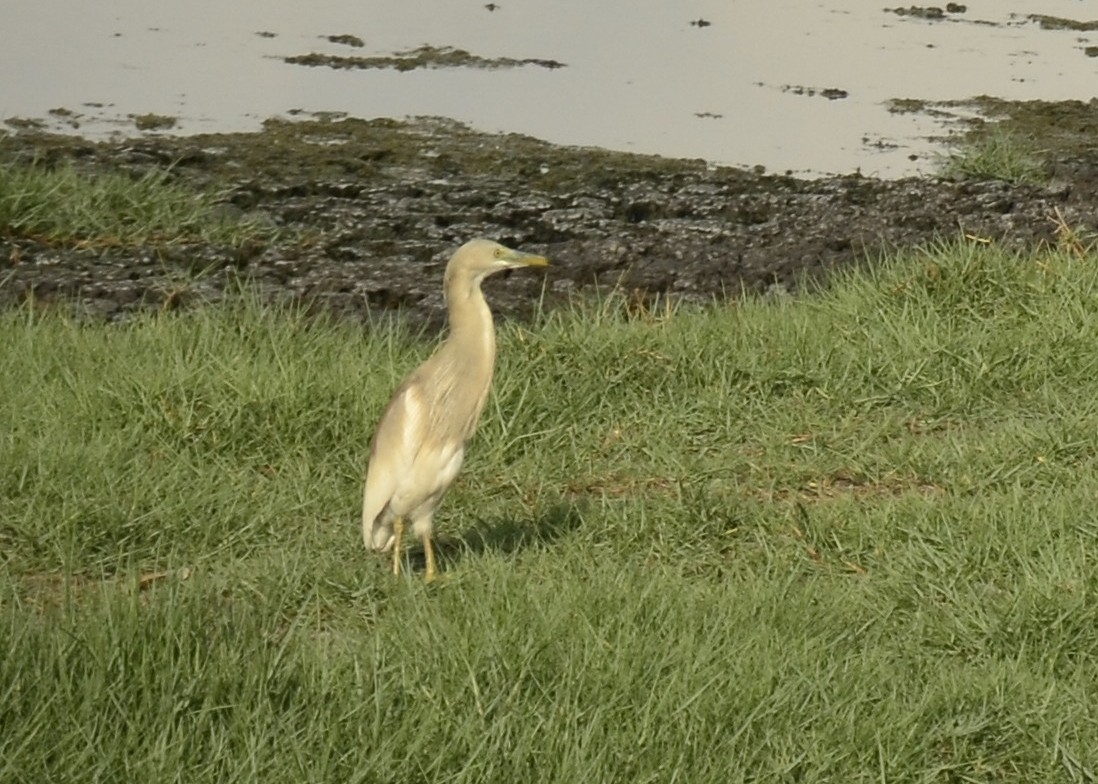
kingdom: Animalia
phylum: Chordata
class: Aves
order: Pelecaniformes
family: Ardeidae
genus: Ardeola
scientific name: Ardeola grayii
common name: Indian pond heron
